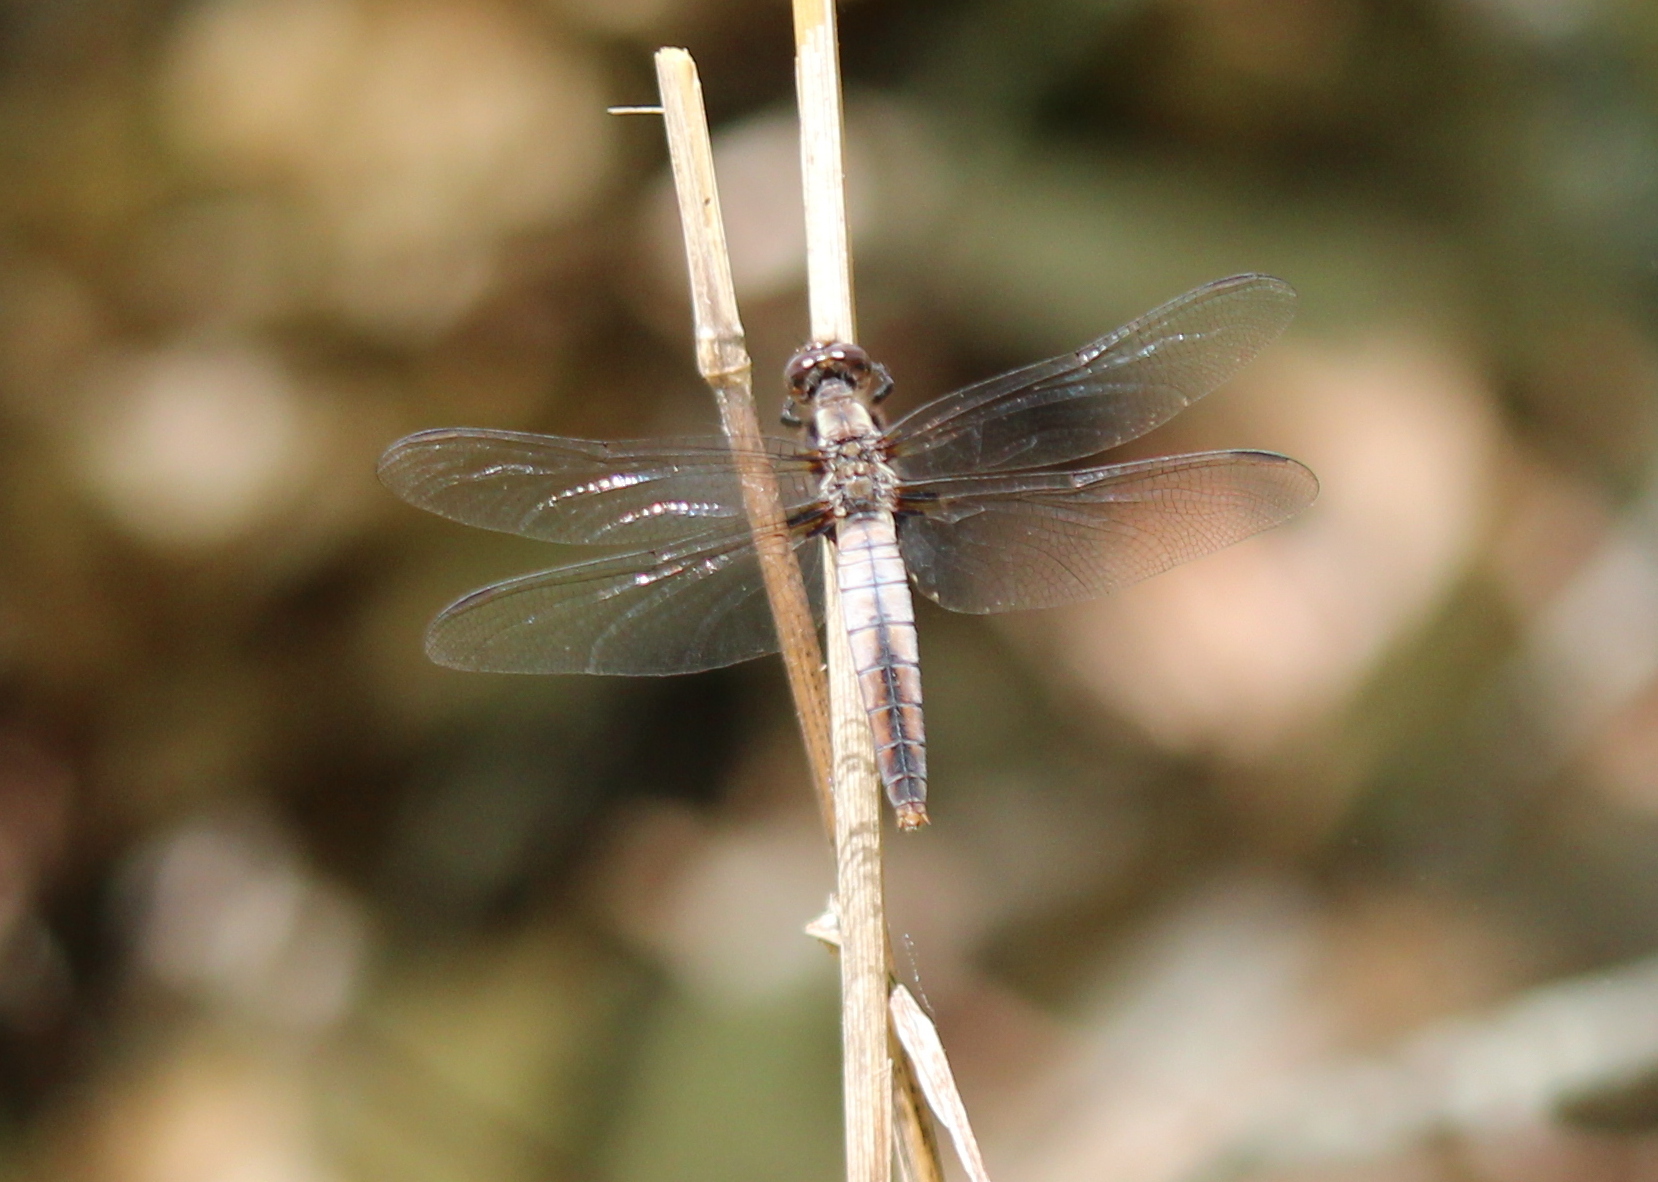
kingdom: Animalia
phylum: Arthropoda
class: Insecta
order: Odonata
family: Libellulidae
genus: Ladona
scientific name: Ladona julia
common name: Chalk-fronted corporal
